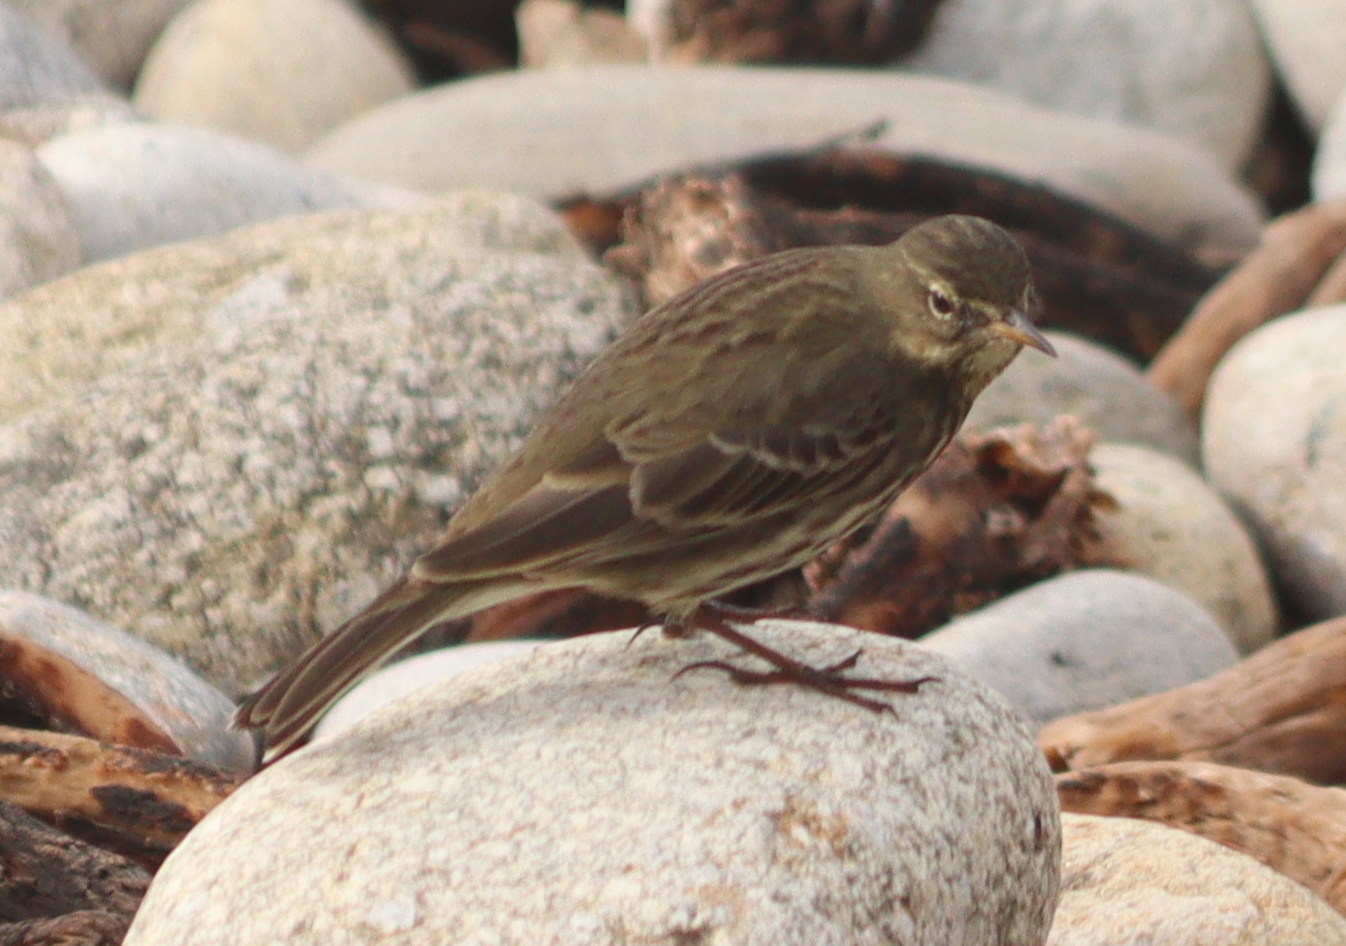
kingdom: Animalia
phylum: Chordata
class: Aves
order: Passeriformes
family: Motacillidae
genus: Anthus
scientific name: Anthus petrosus
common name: Eurasian rock pipit
